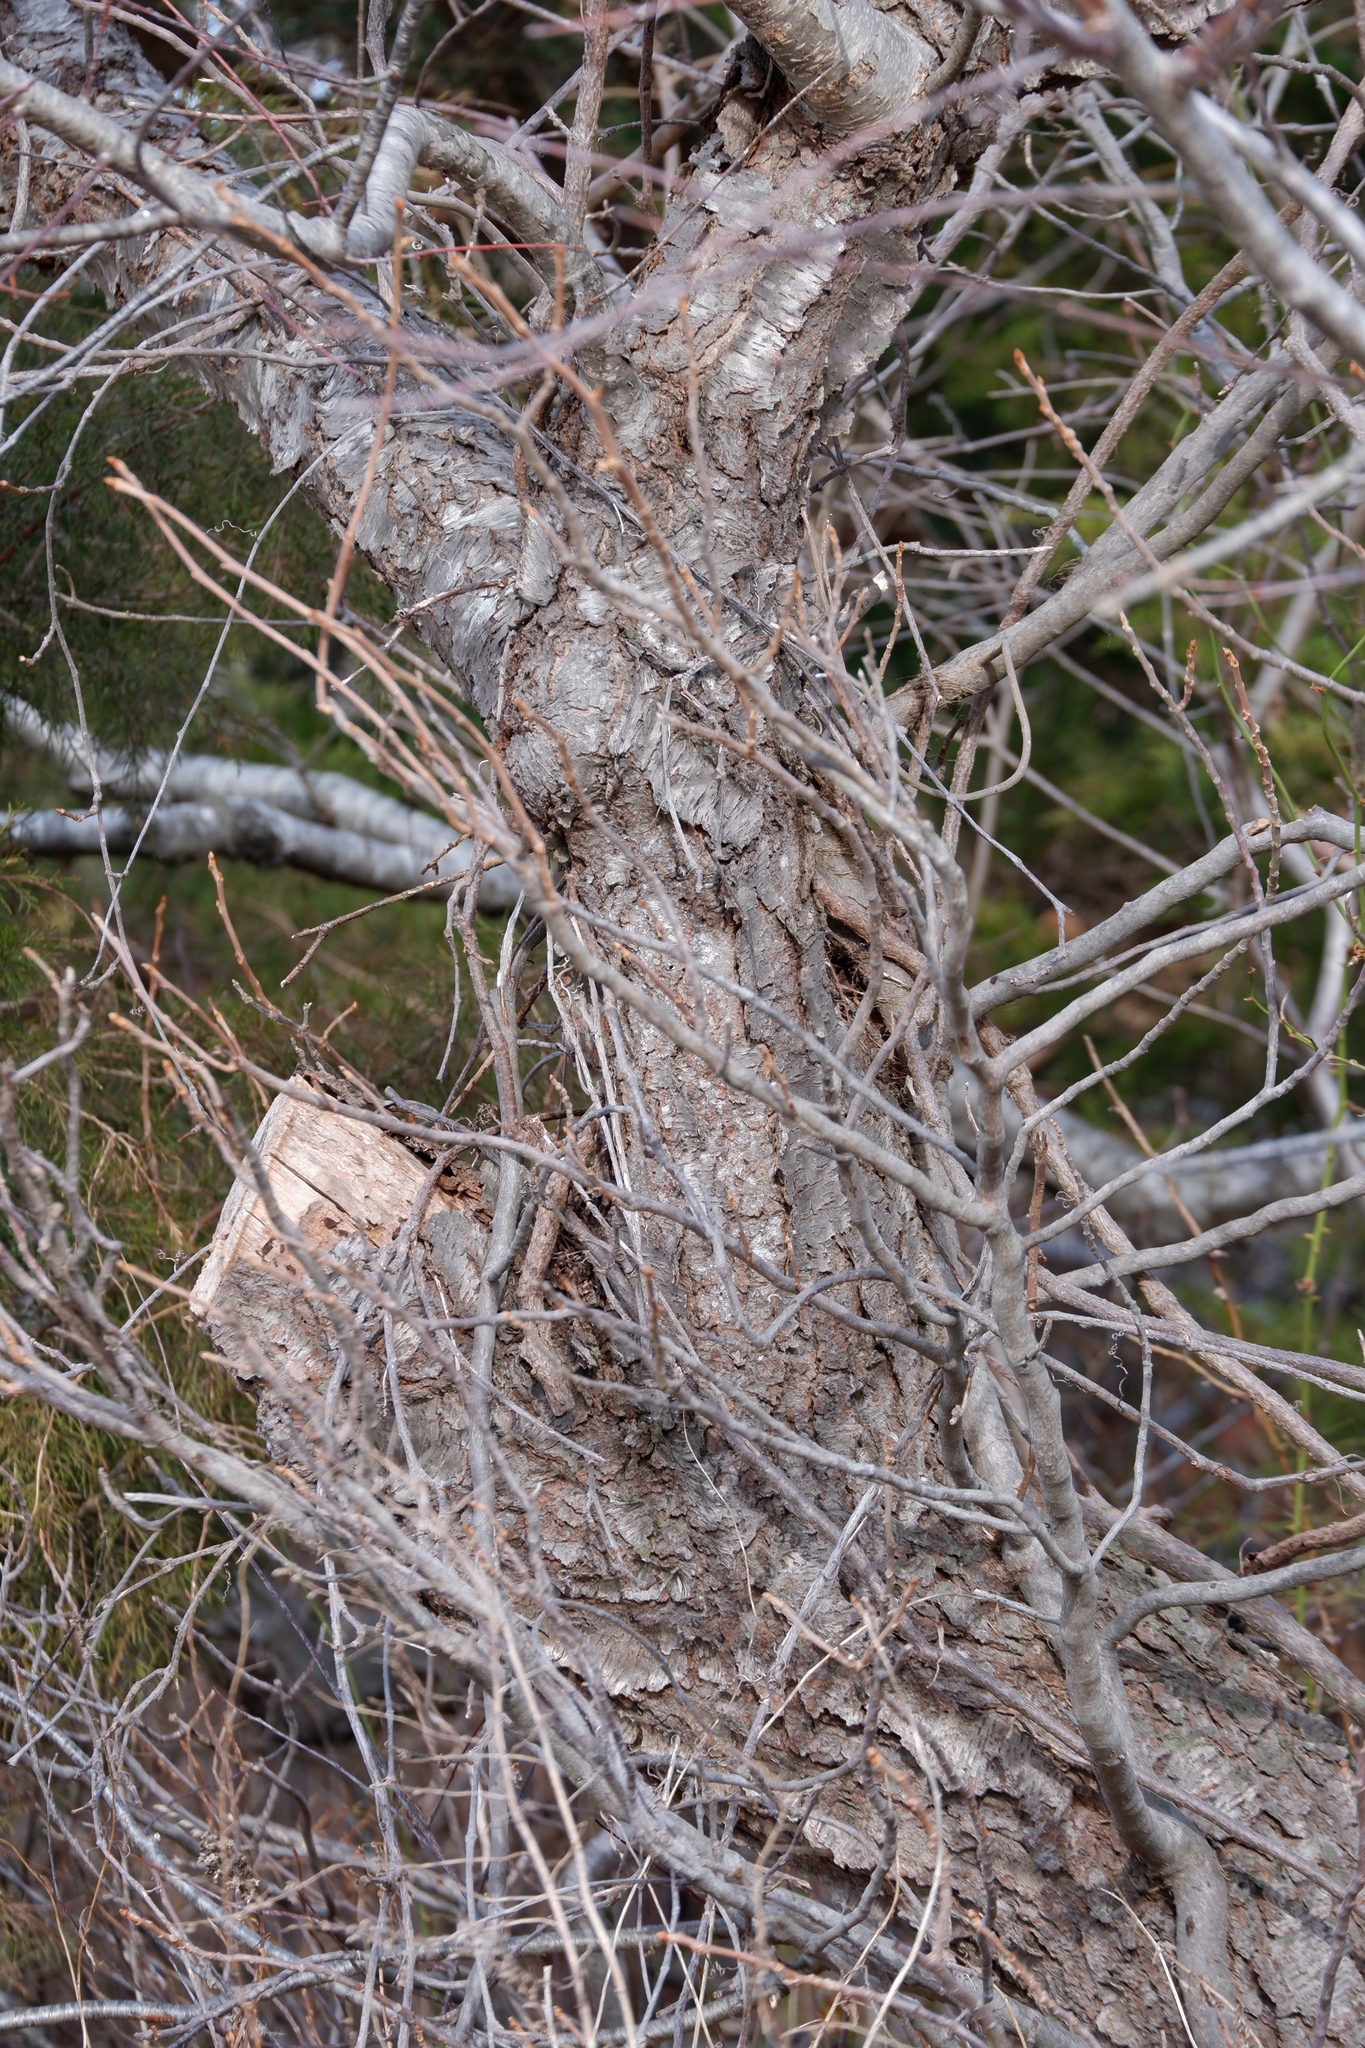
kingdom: Plantae
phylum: Tracheophyta
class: Magnoliopsida
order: Rosales
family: Rosaceae
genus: Prunus
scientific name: Prunus serotina
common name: Black cherry
